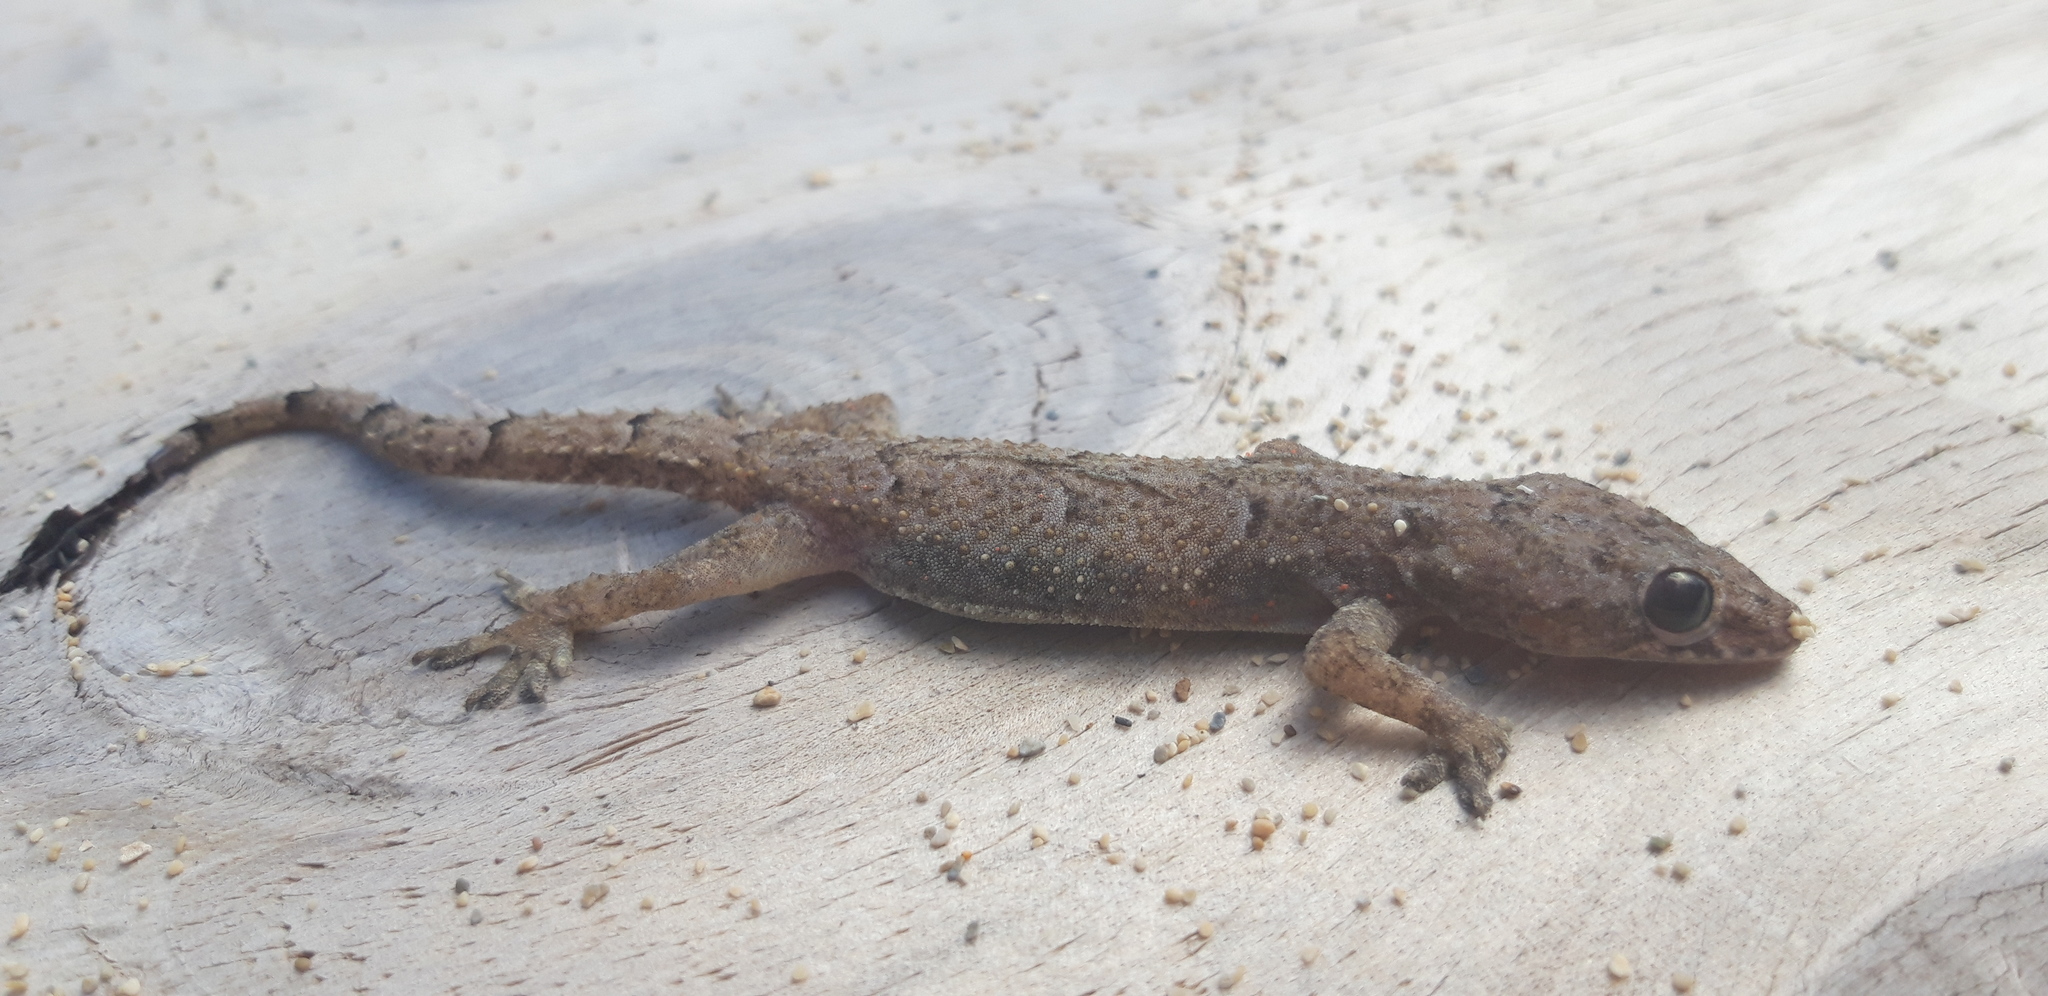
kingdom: Animalia
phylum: Chordata
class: Squamata
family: Gekkonidae
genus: Hemidactylus
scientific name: Hemidactylus mabouia
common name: House gecko
